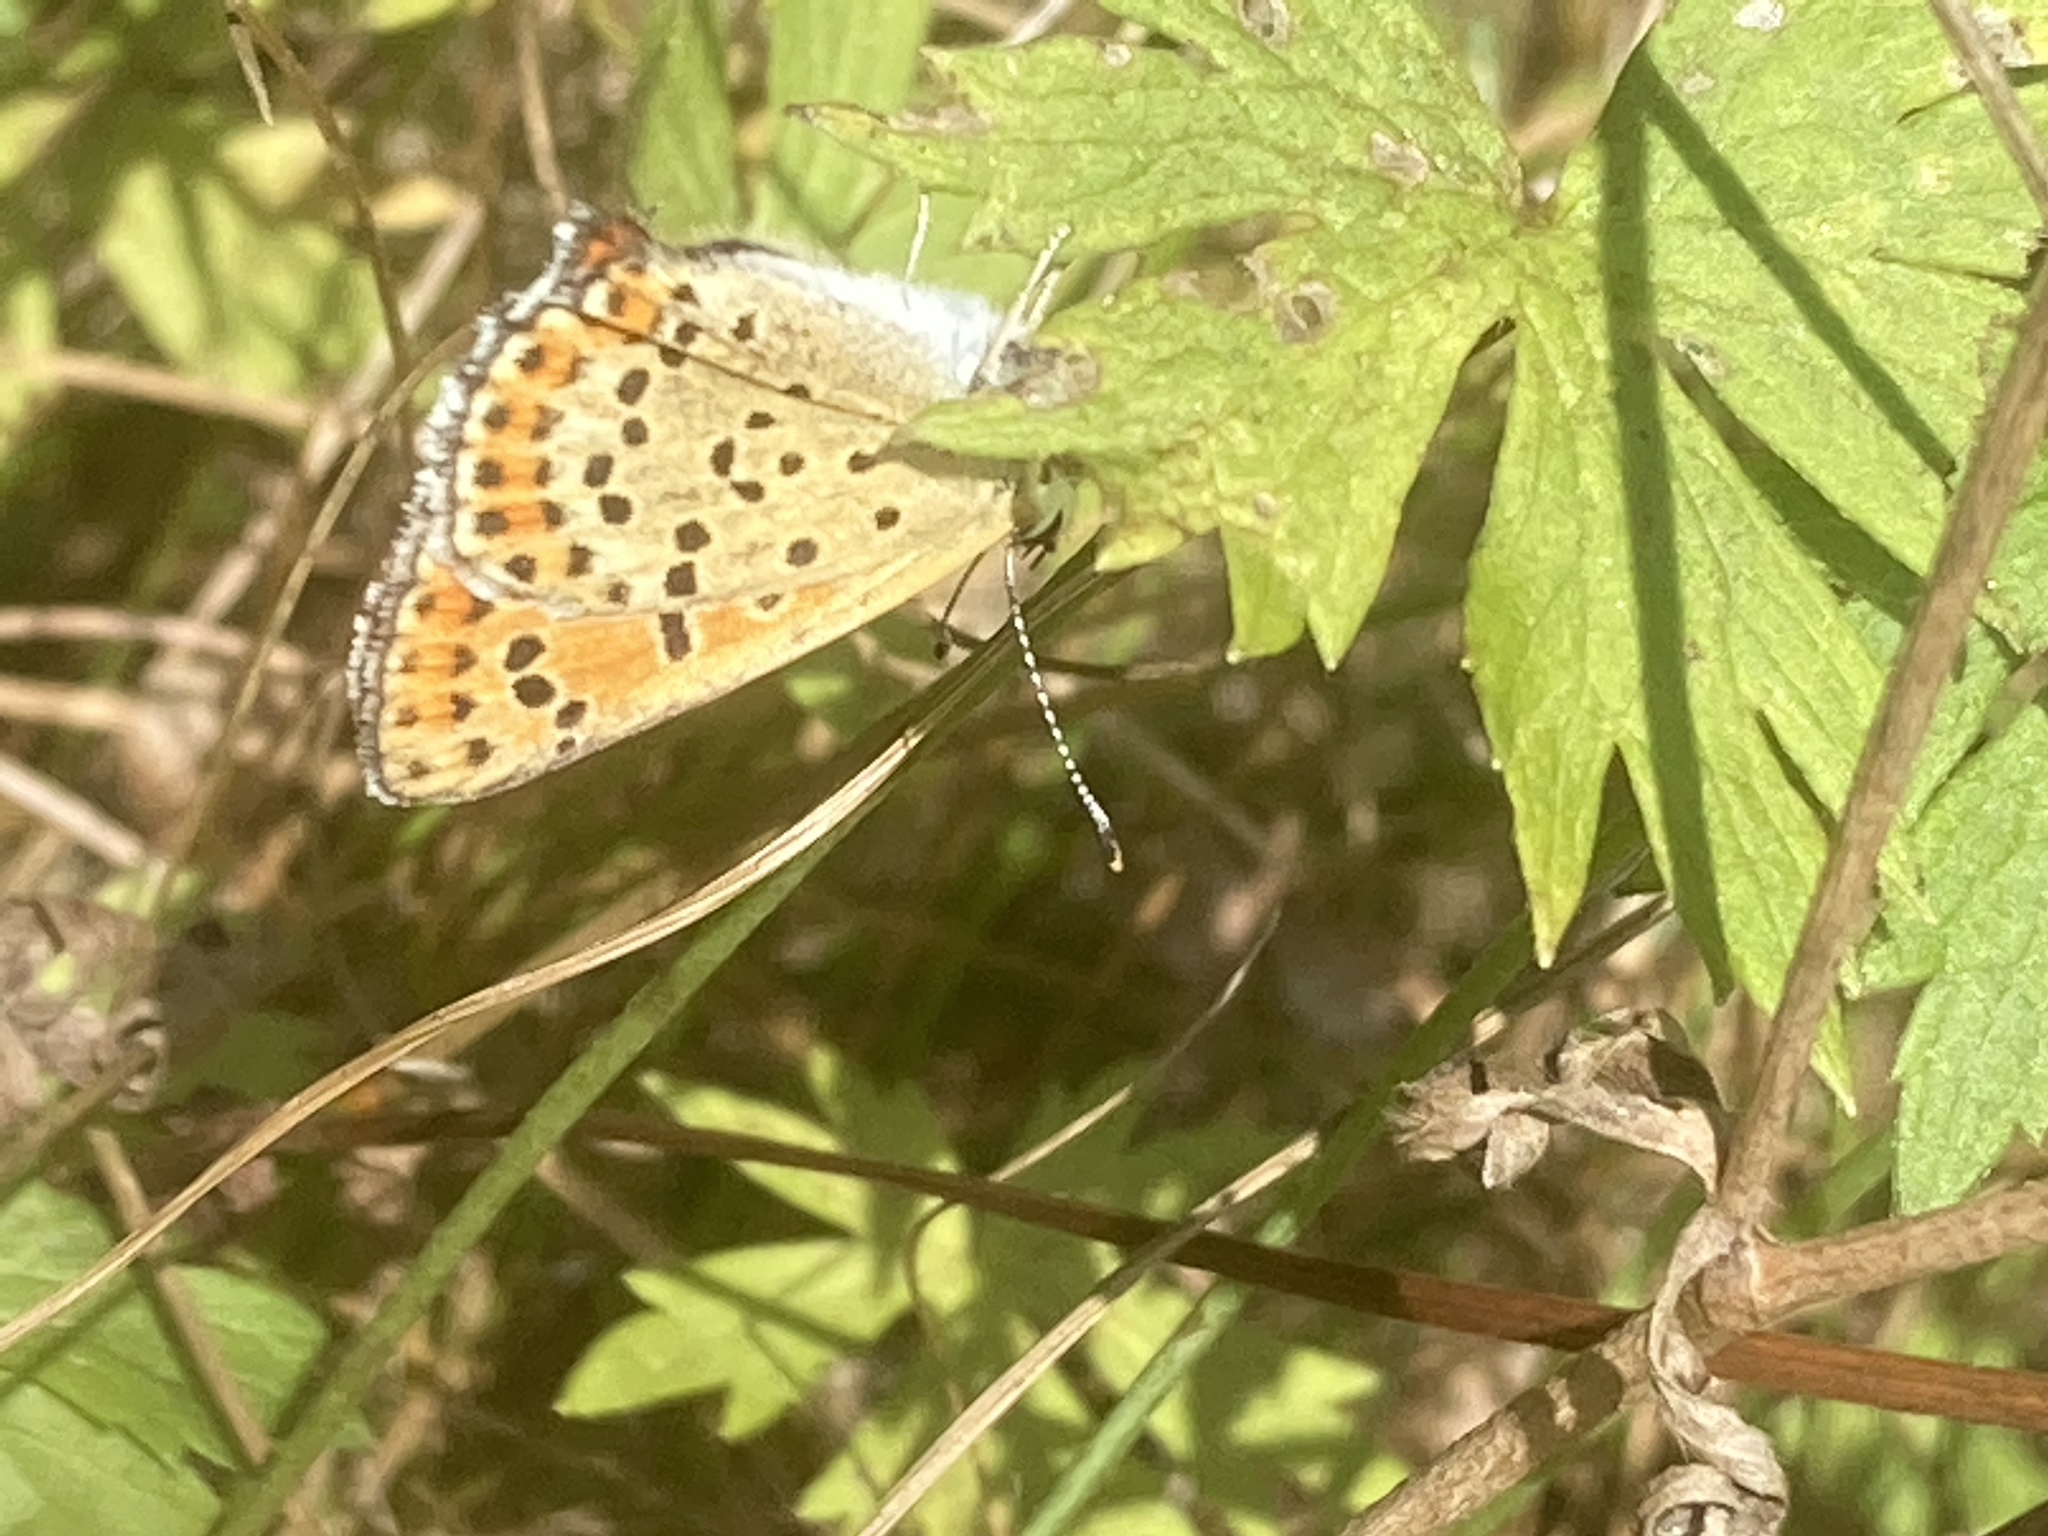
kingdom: Animalia
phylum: Arthropoda
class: Insecta
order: Lepidoptera
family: Lycaenidae
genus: Loweia
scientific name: Loweia tityrus
